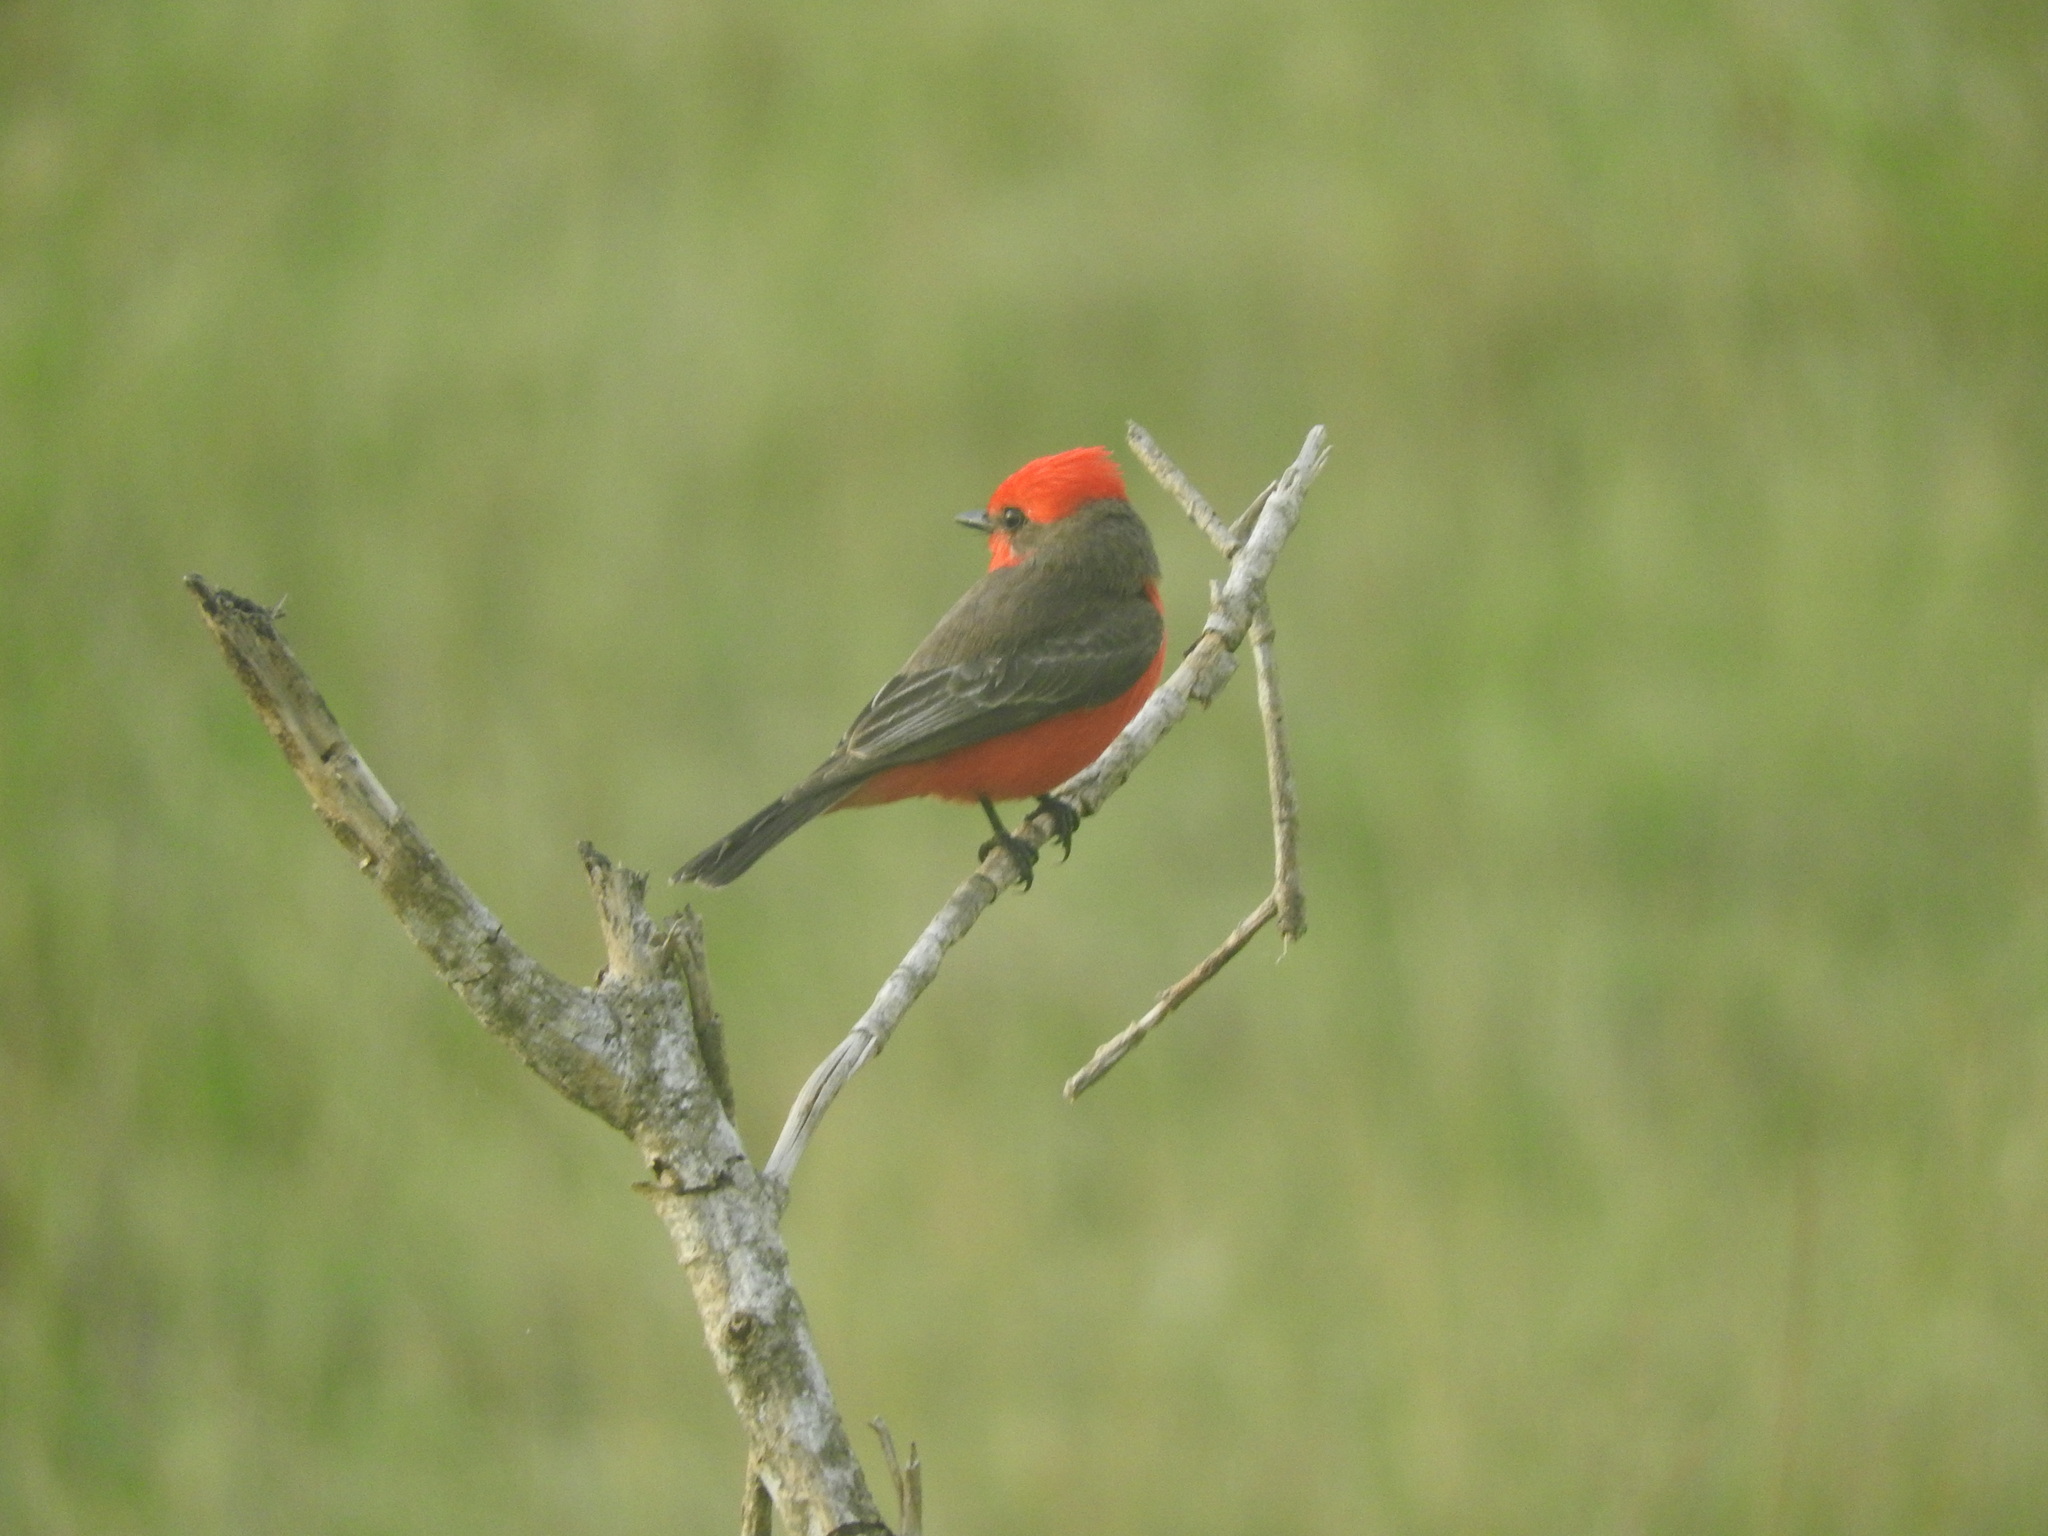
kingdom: Animalia
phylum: Chordata
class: Aves
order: Passeriformes
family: Tyrannidae
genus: Pyrocephalus
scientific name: Pyrocephalus rubinus
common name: Vermilion flycatcher
